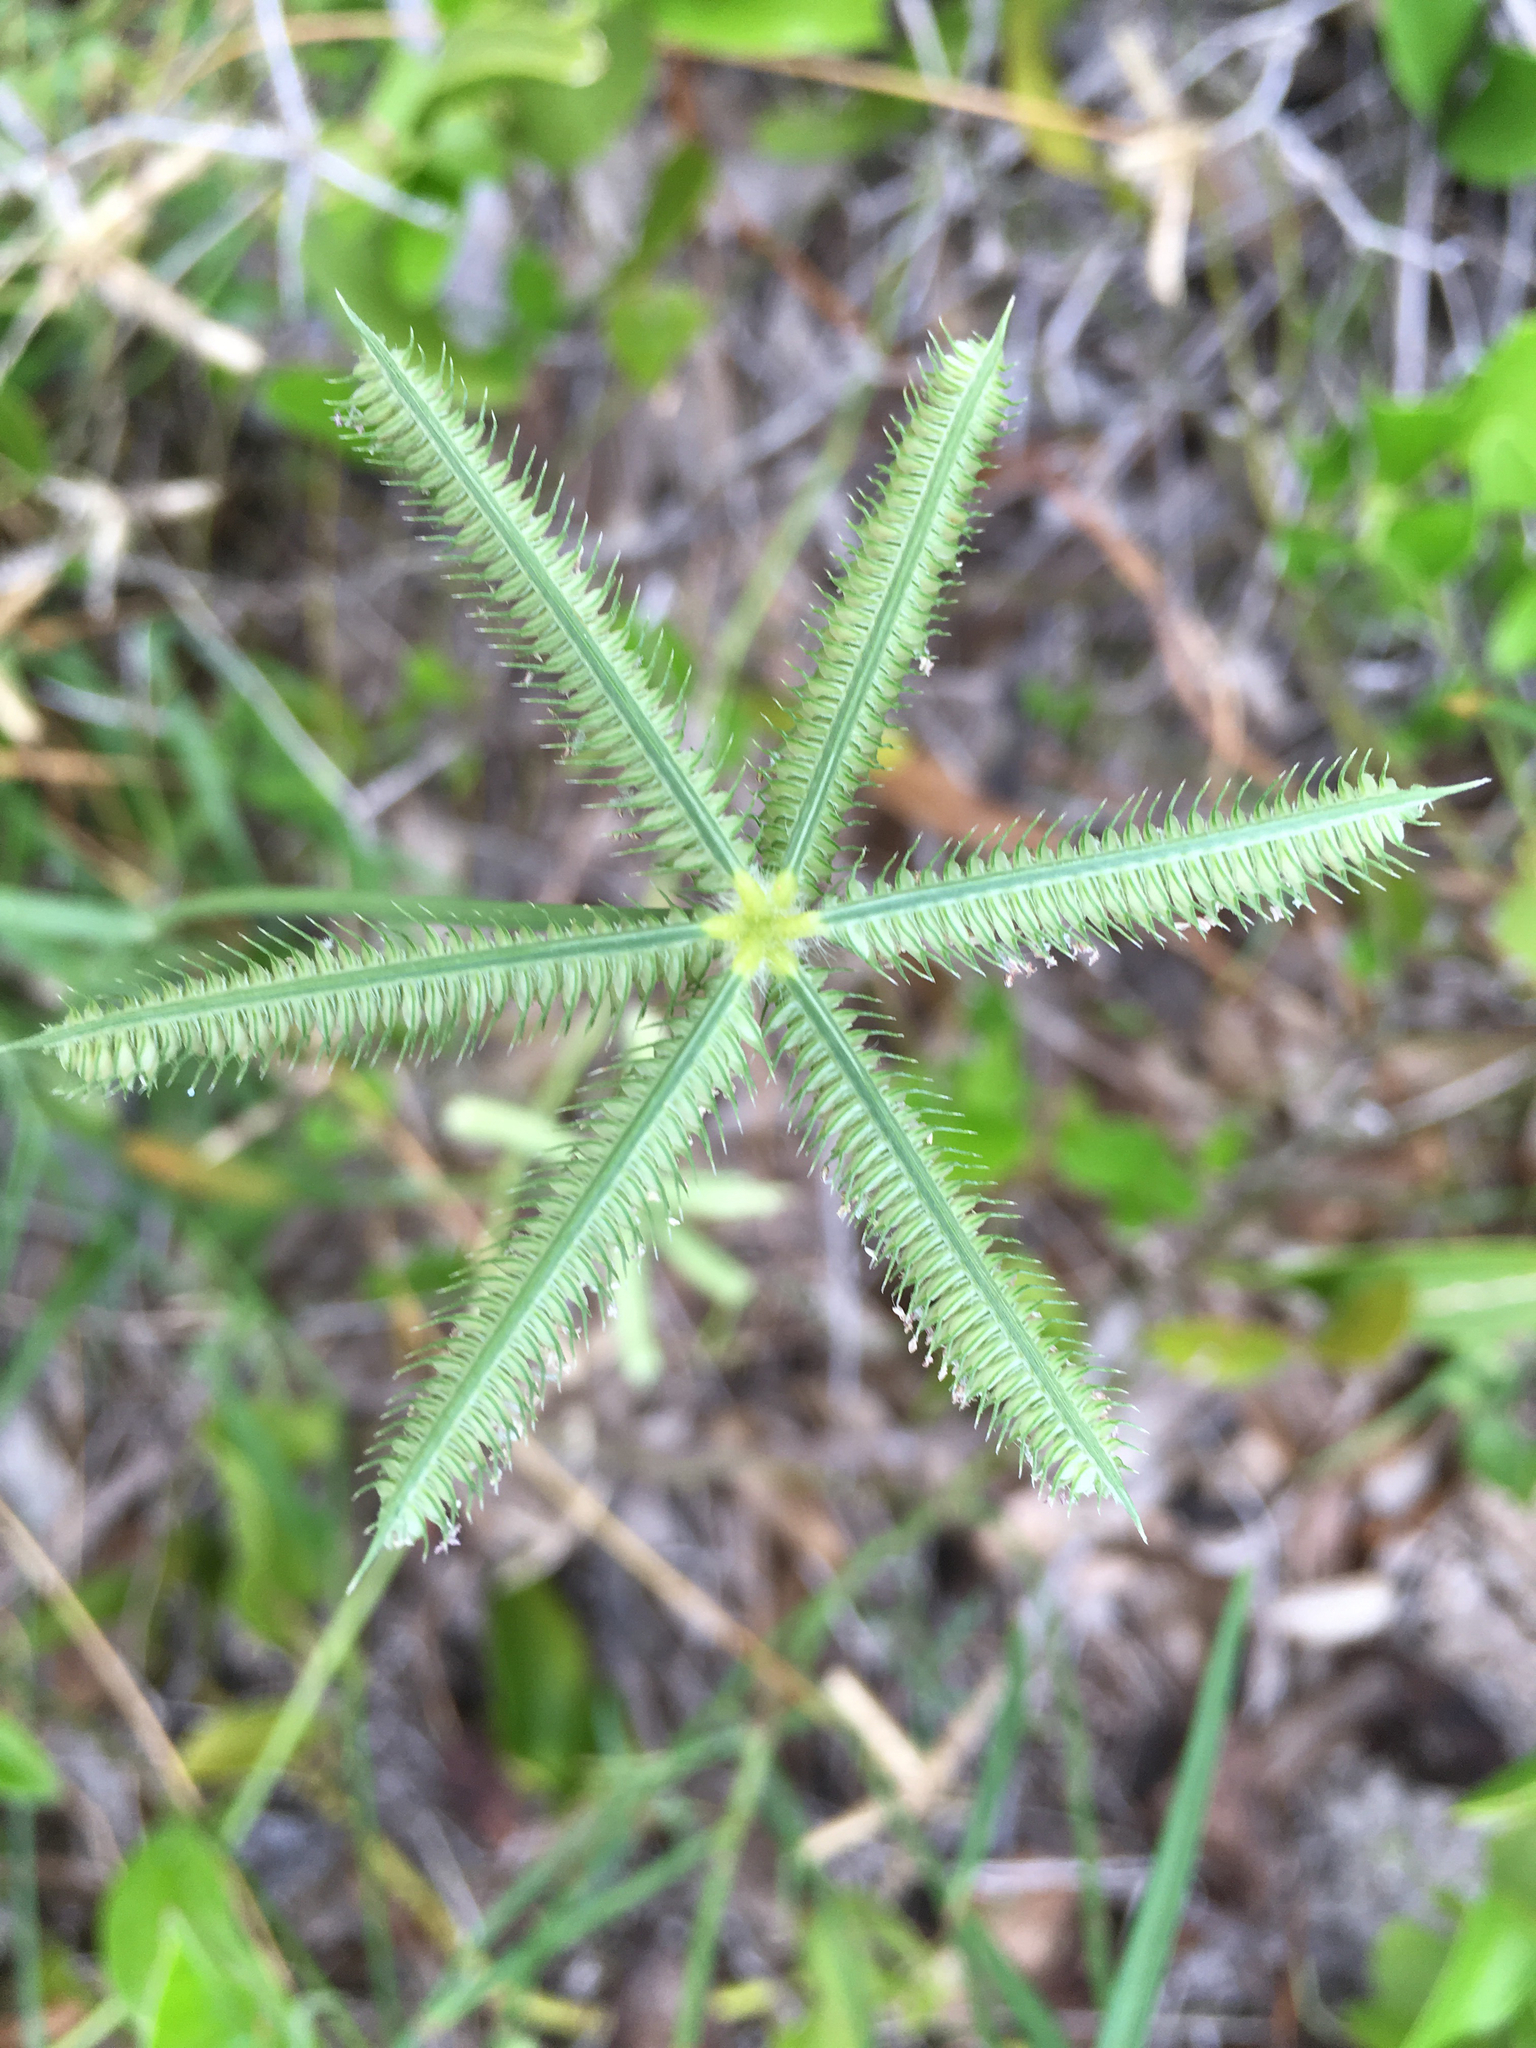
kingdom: Plantae
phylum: Tracheophyta
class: Liliopsida
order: Poales
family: Poaceae
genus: Dactyloctenium
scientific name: Dactyloctenium aegyptium
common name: Egyptian grass
